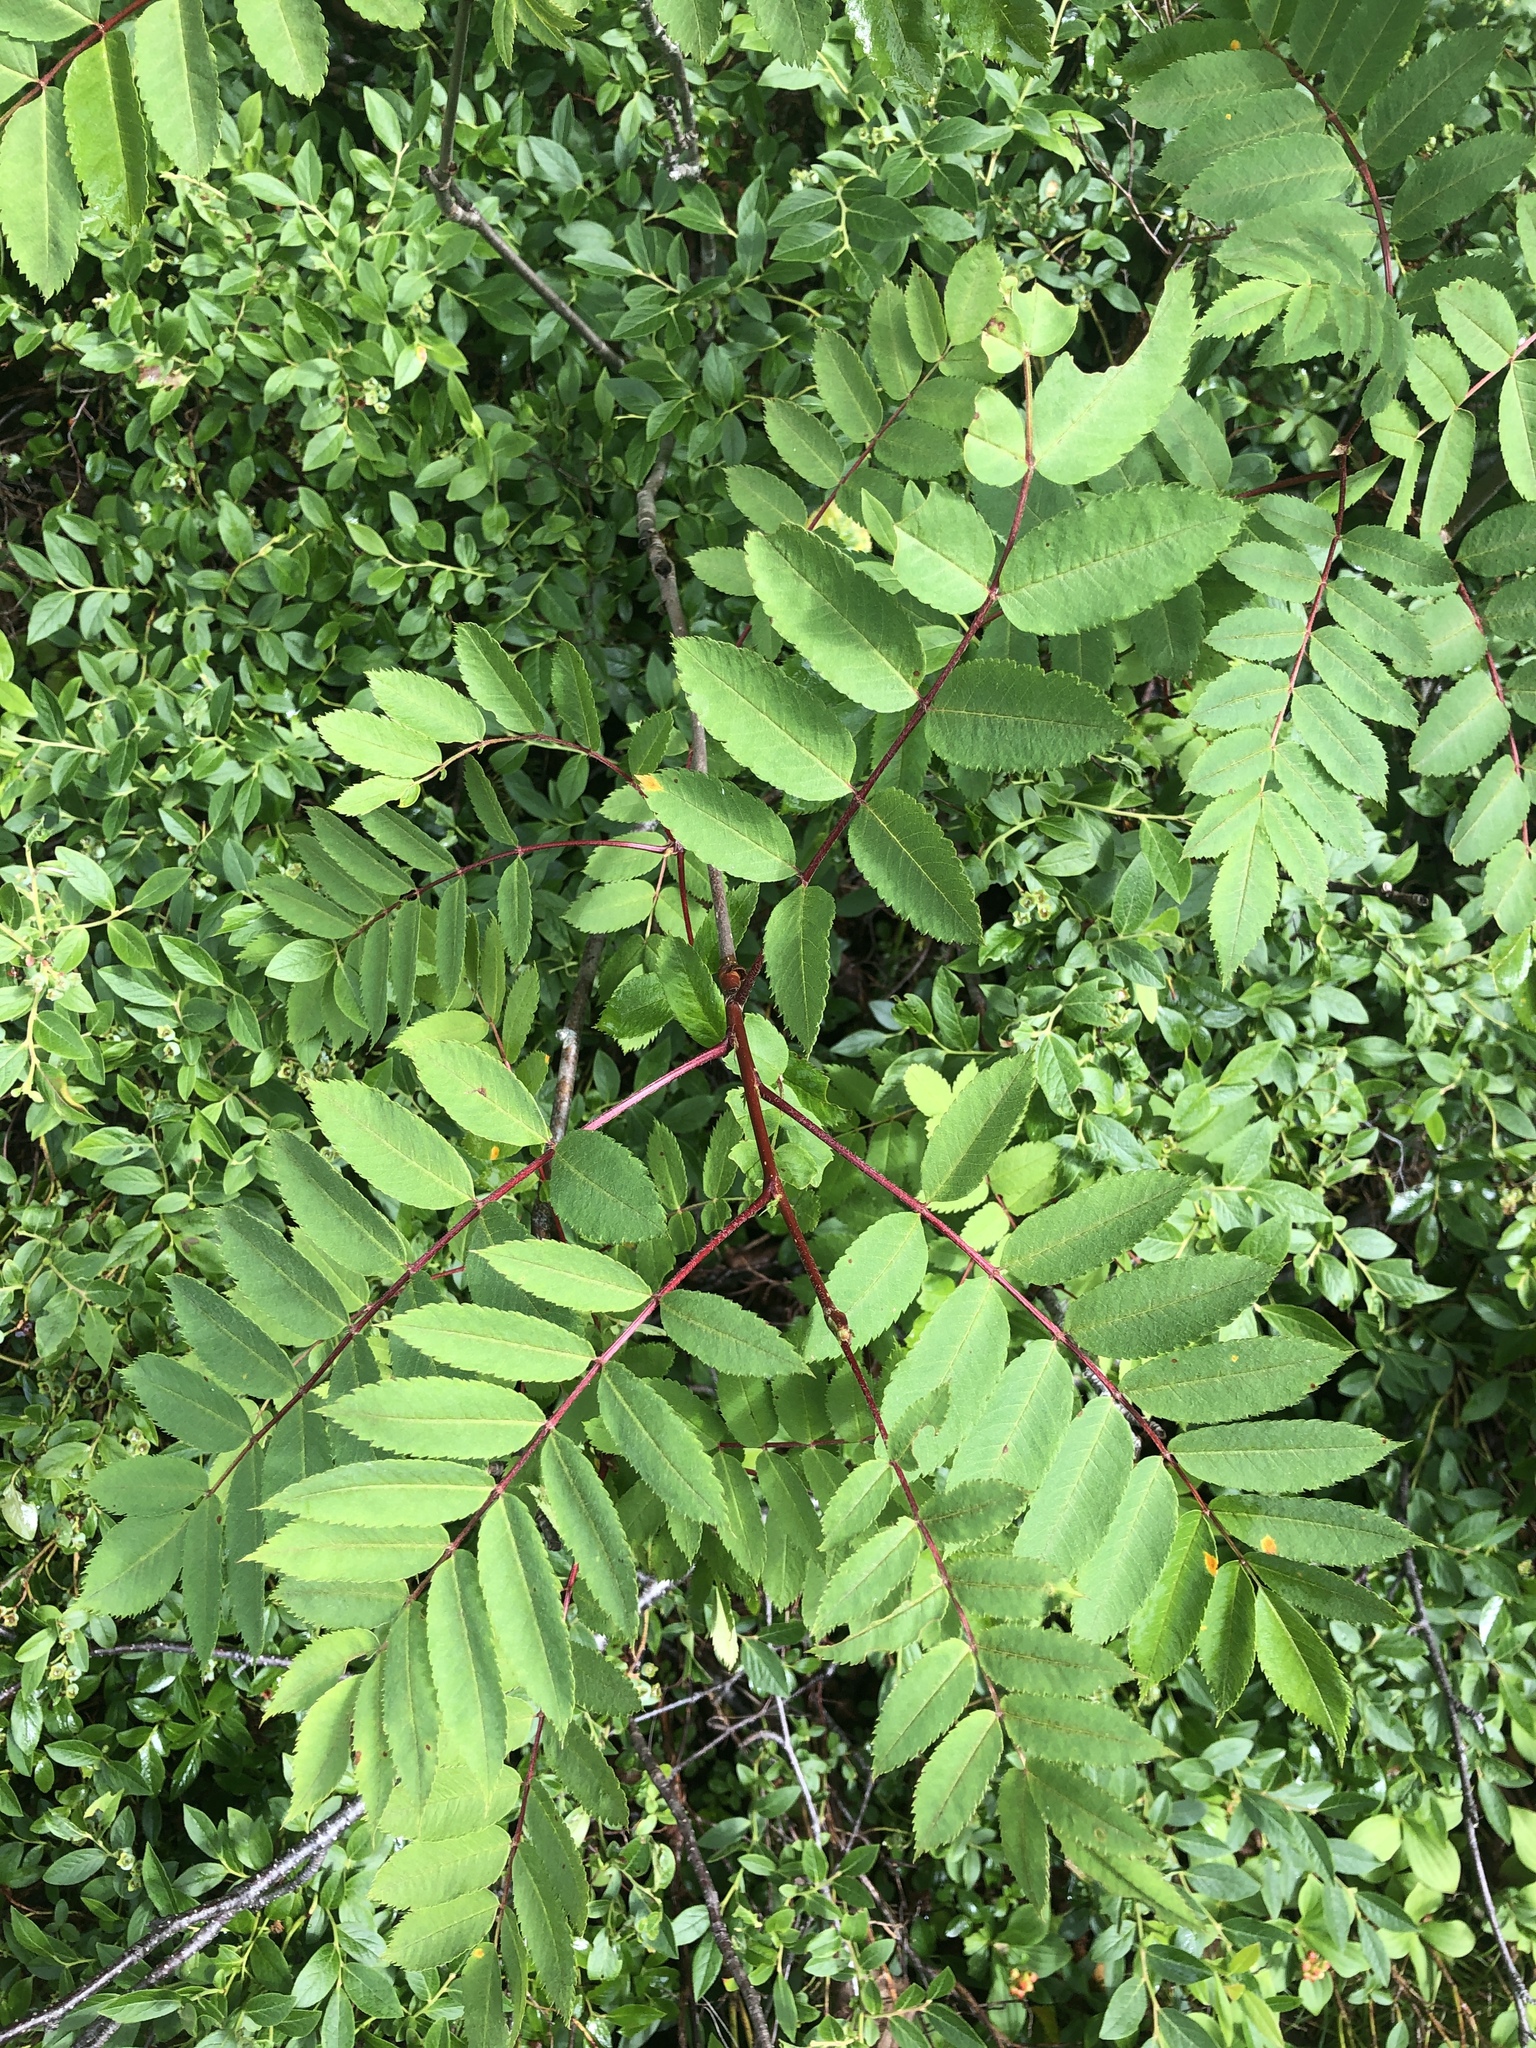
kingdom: Plantae
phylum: Tracheophyta
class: Magnoliopsida
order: Rosales
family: Rosaceae
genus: Sorbus
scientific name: Sorbus decora
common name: Northern mountain-ash
